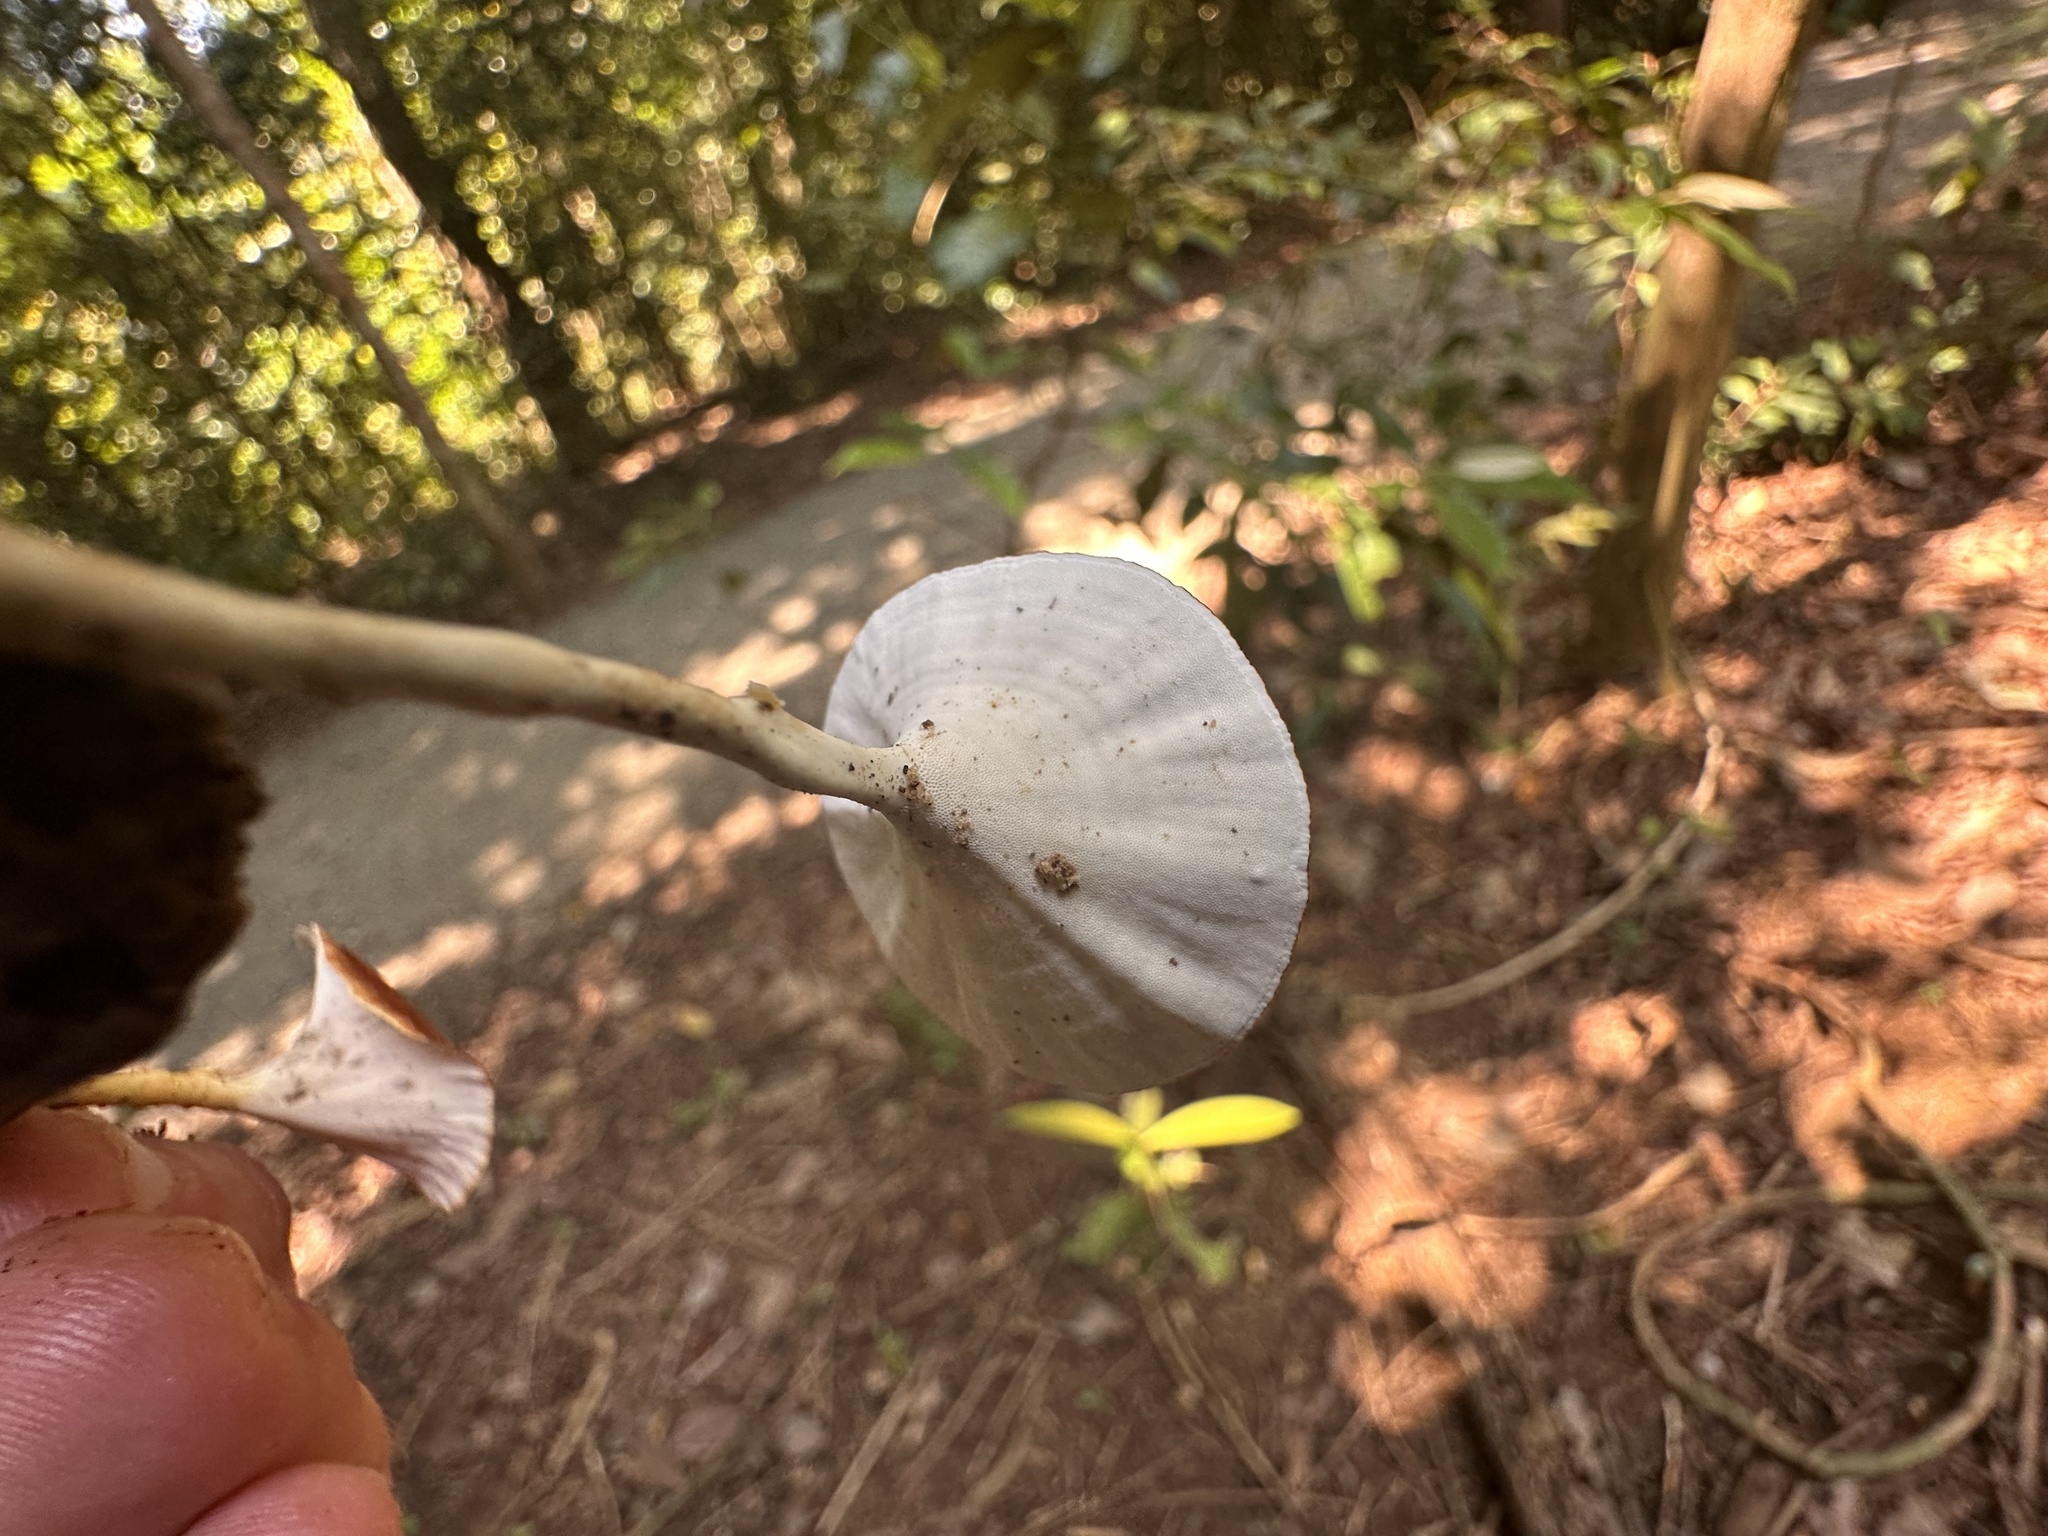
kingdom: Fungi
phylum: Basidiomycota
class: Agaricomycetes
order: Polyporales
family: Polyporaceae
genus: Microporus
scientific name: Microporus xanthopus
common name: Yellow-stemmed micropore
